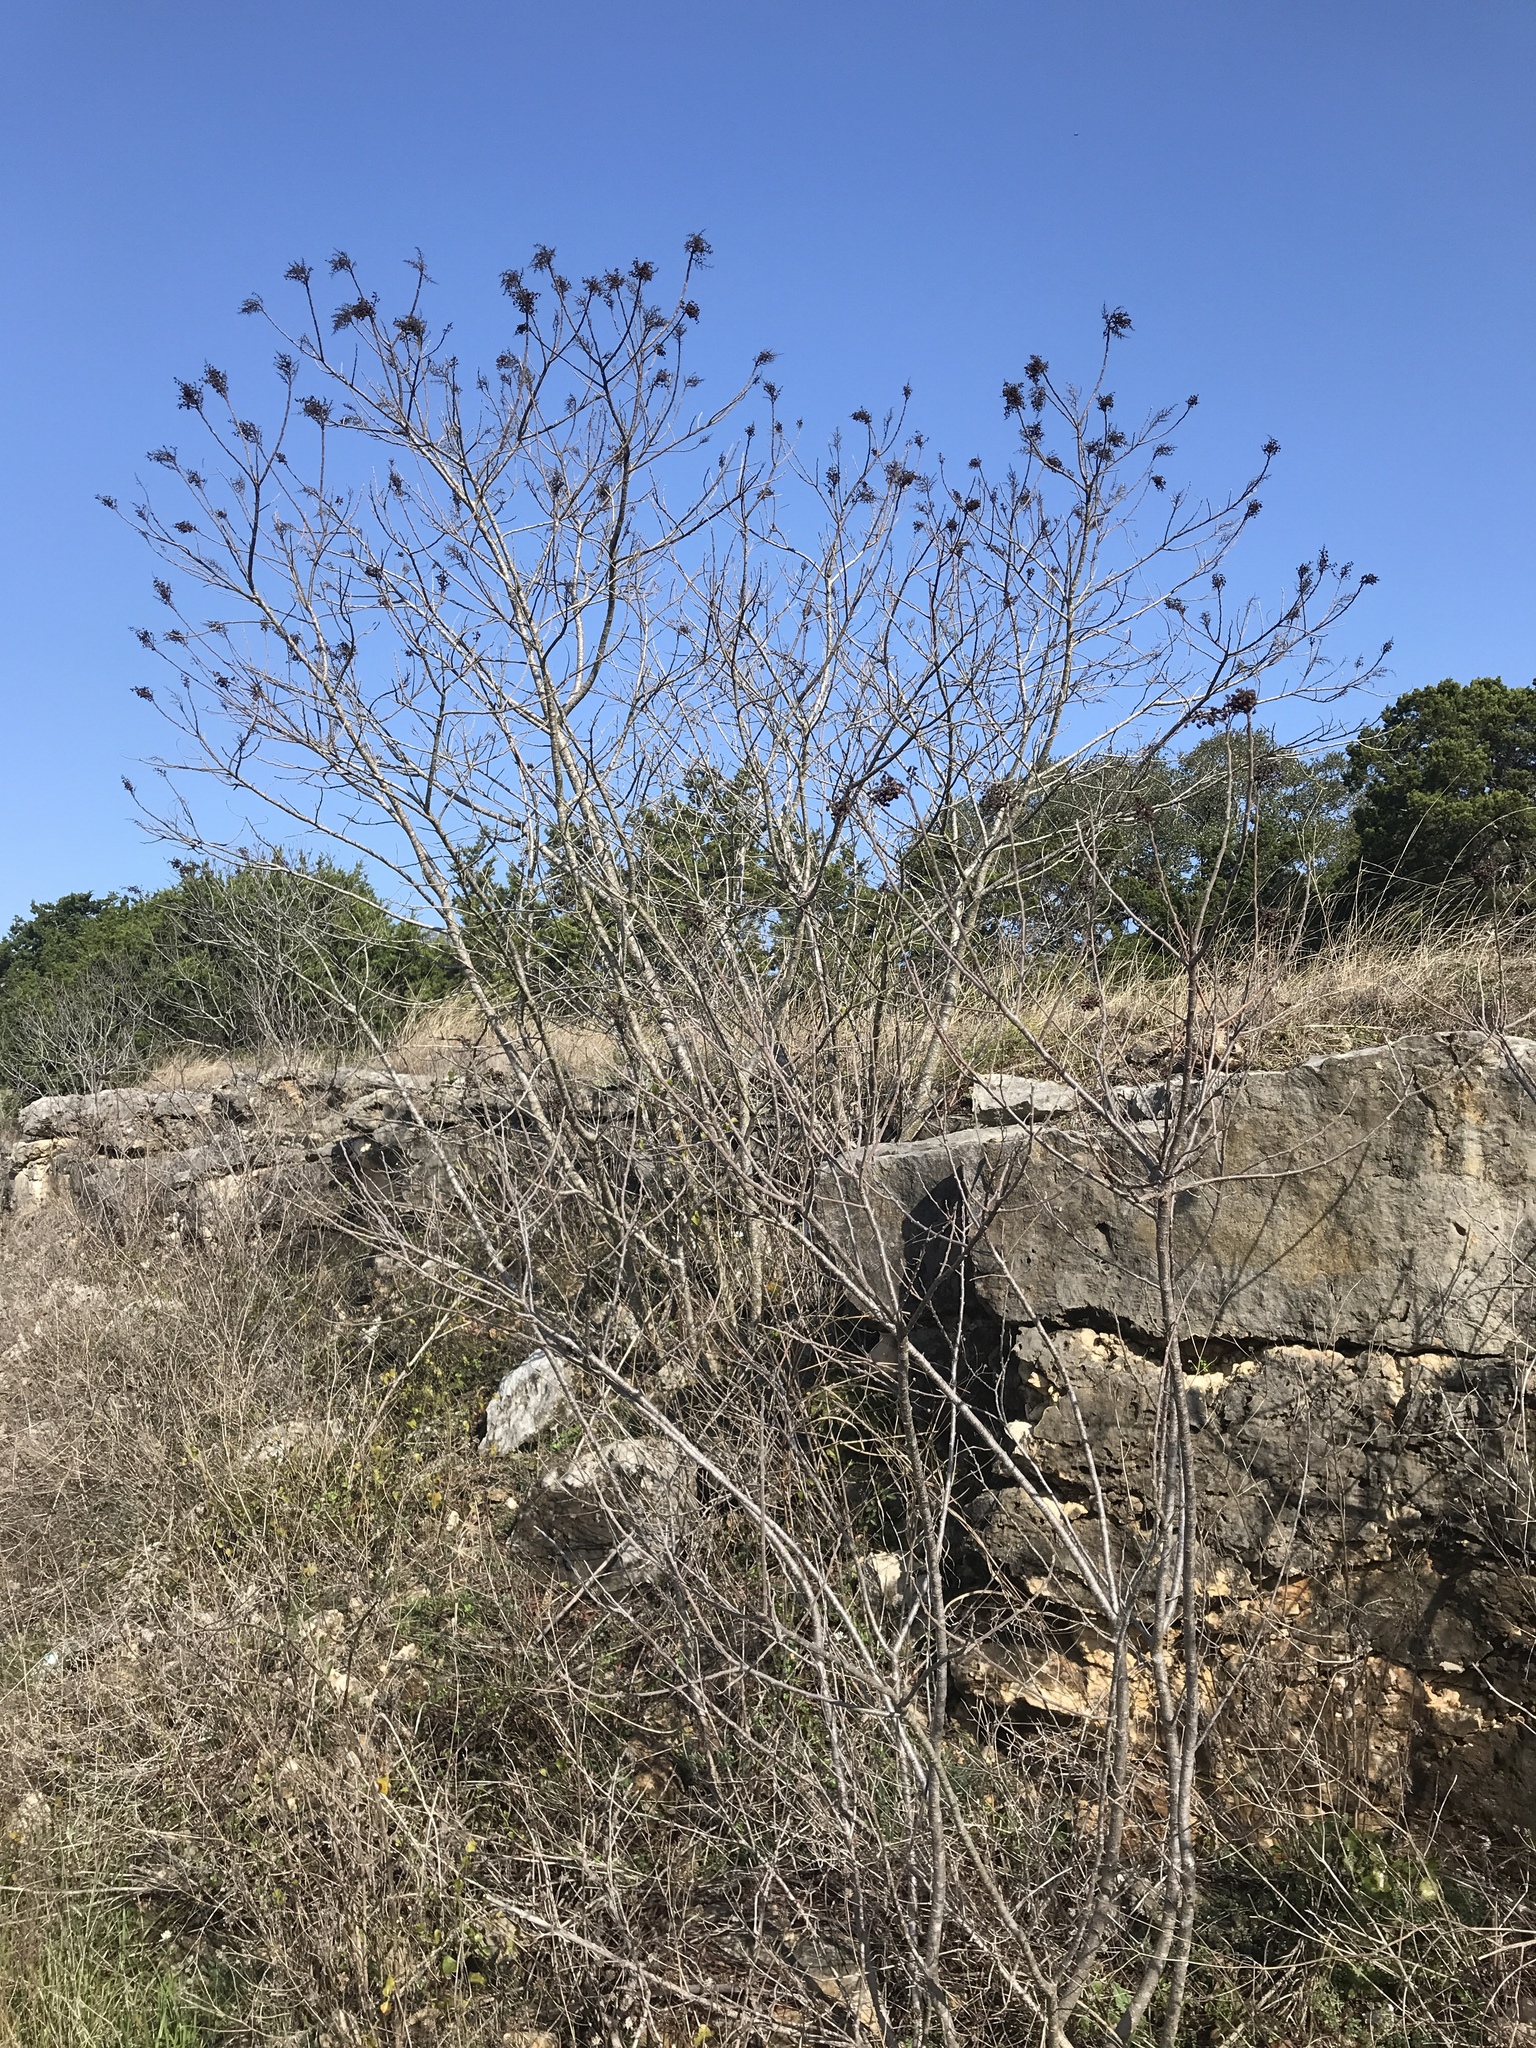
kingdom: Plantae
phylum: Tracheophyta
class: Magnoliopsida
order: Sapindales
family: Anacardiaceae
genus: Rhus
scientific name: Rhus lanceolata
